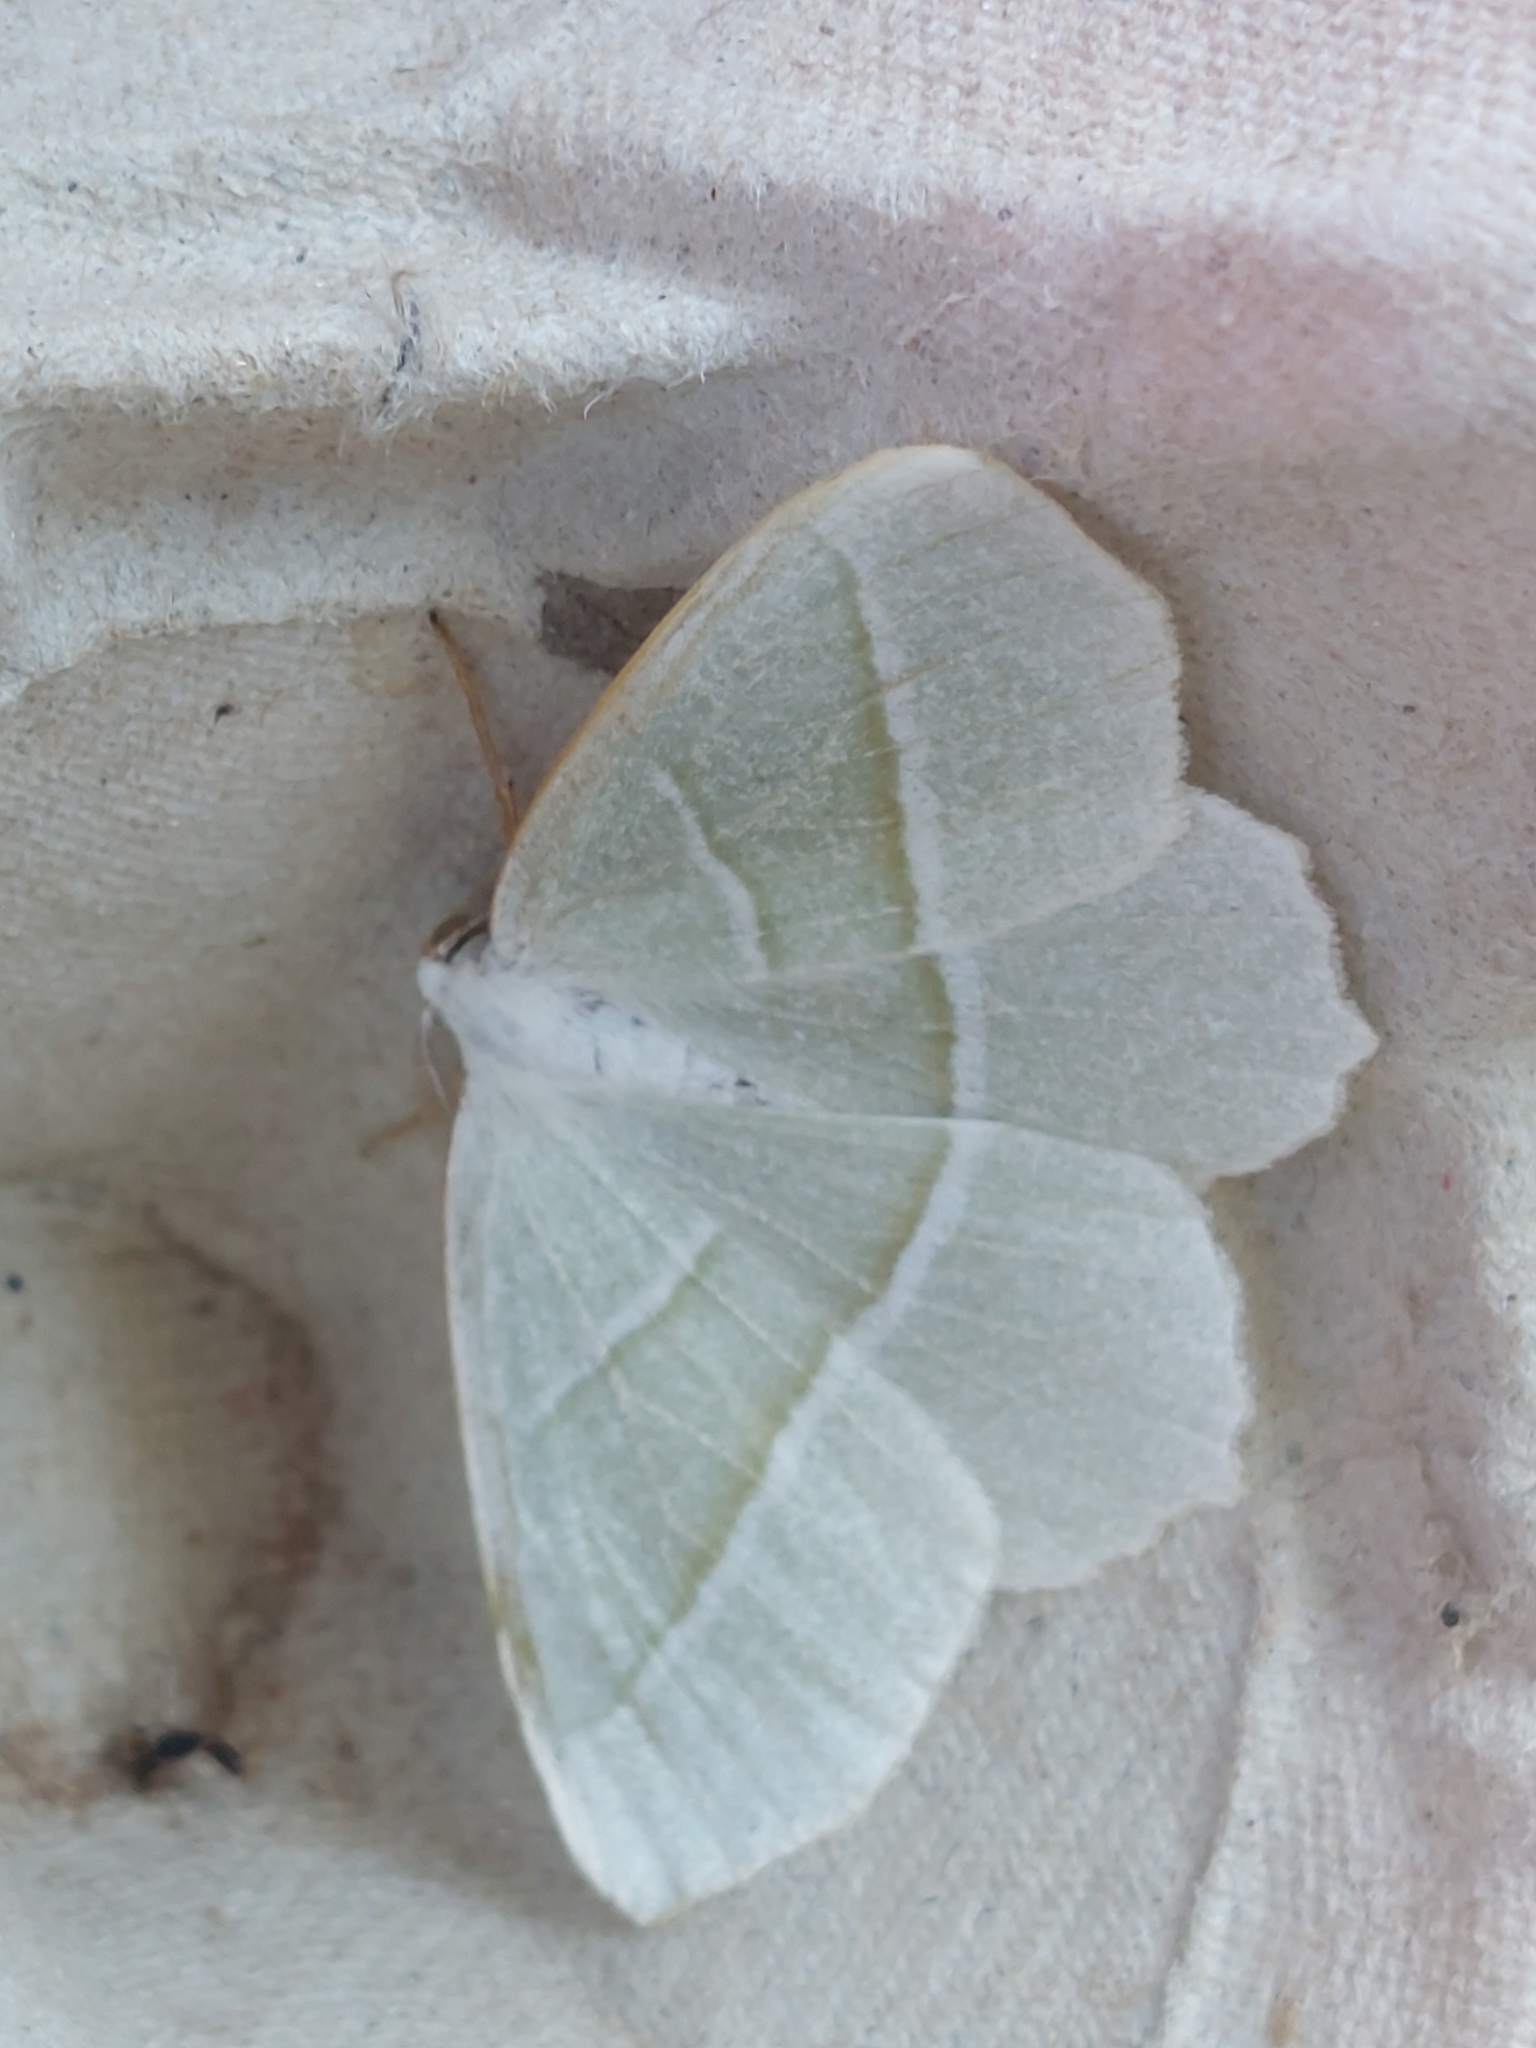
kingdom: Animalia
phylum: Arthropoda
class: Insecta
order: Lepidoptera
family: Geometridae
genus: Campaea
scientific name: Campaea margaritaria
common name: Light emerald
